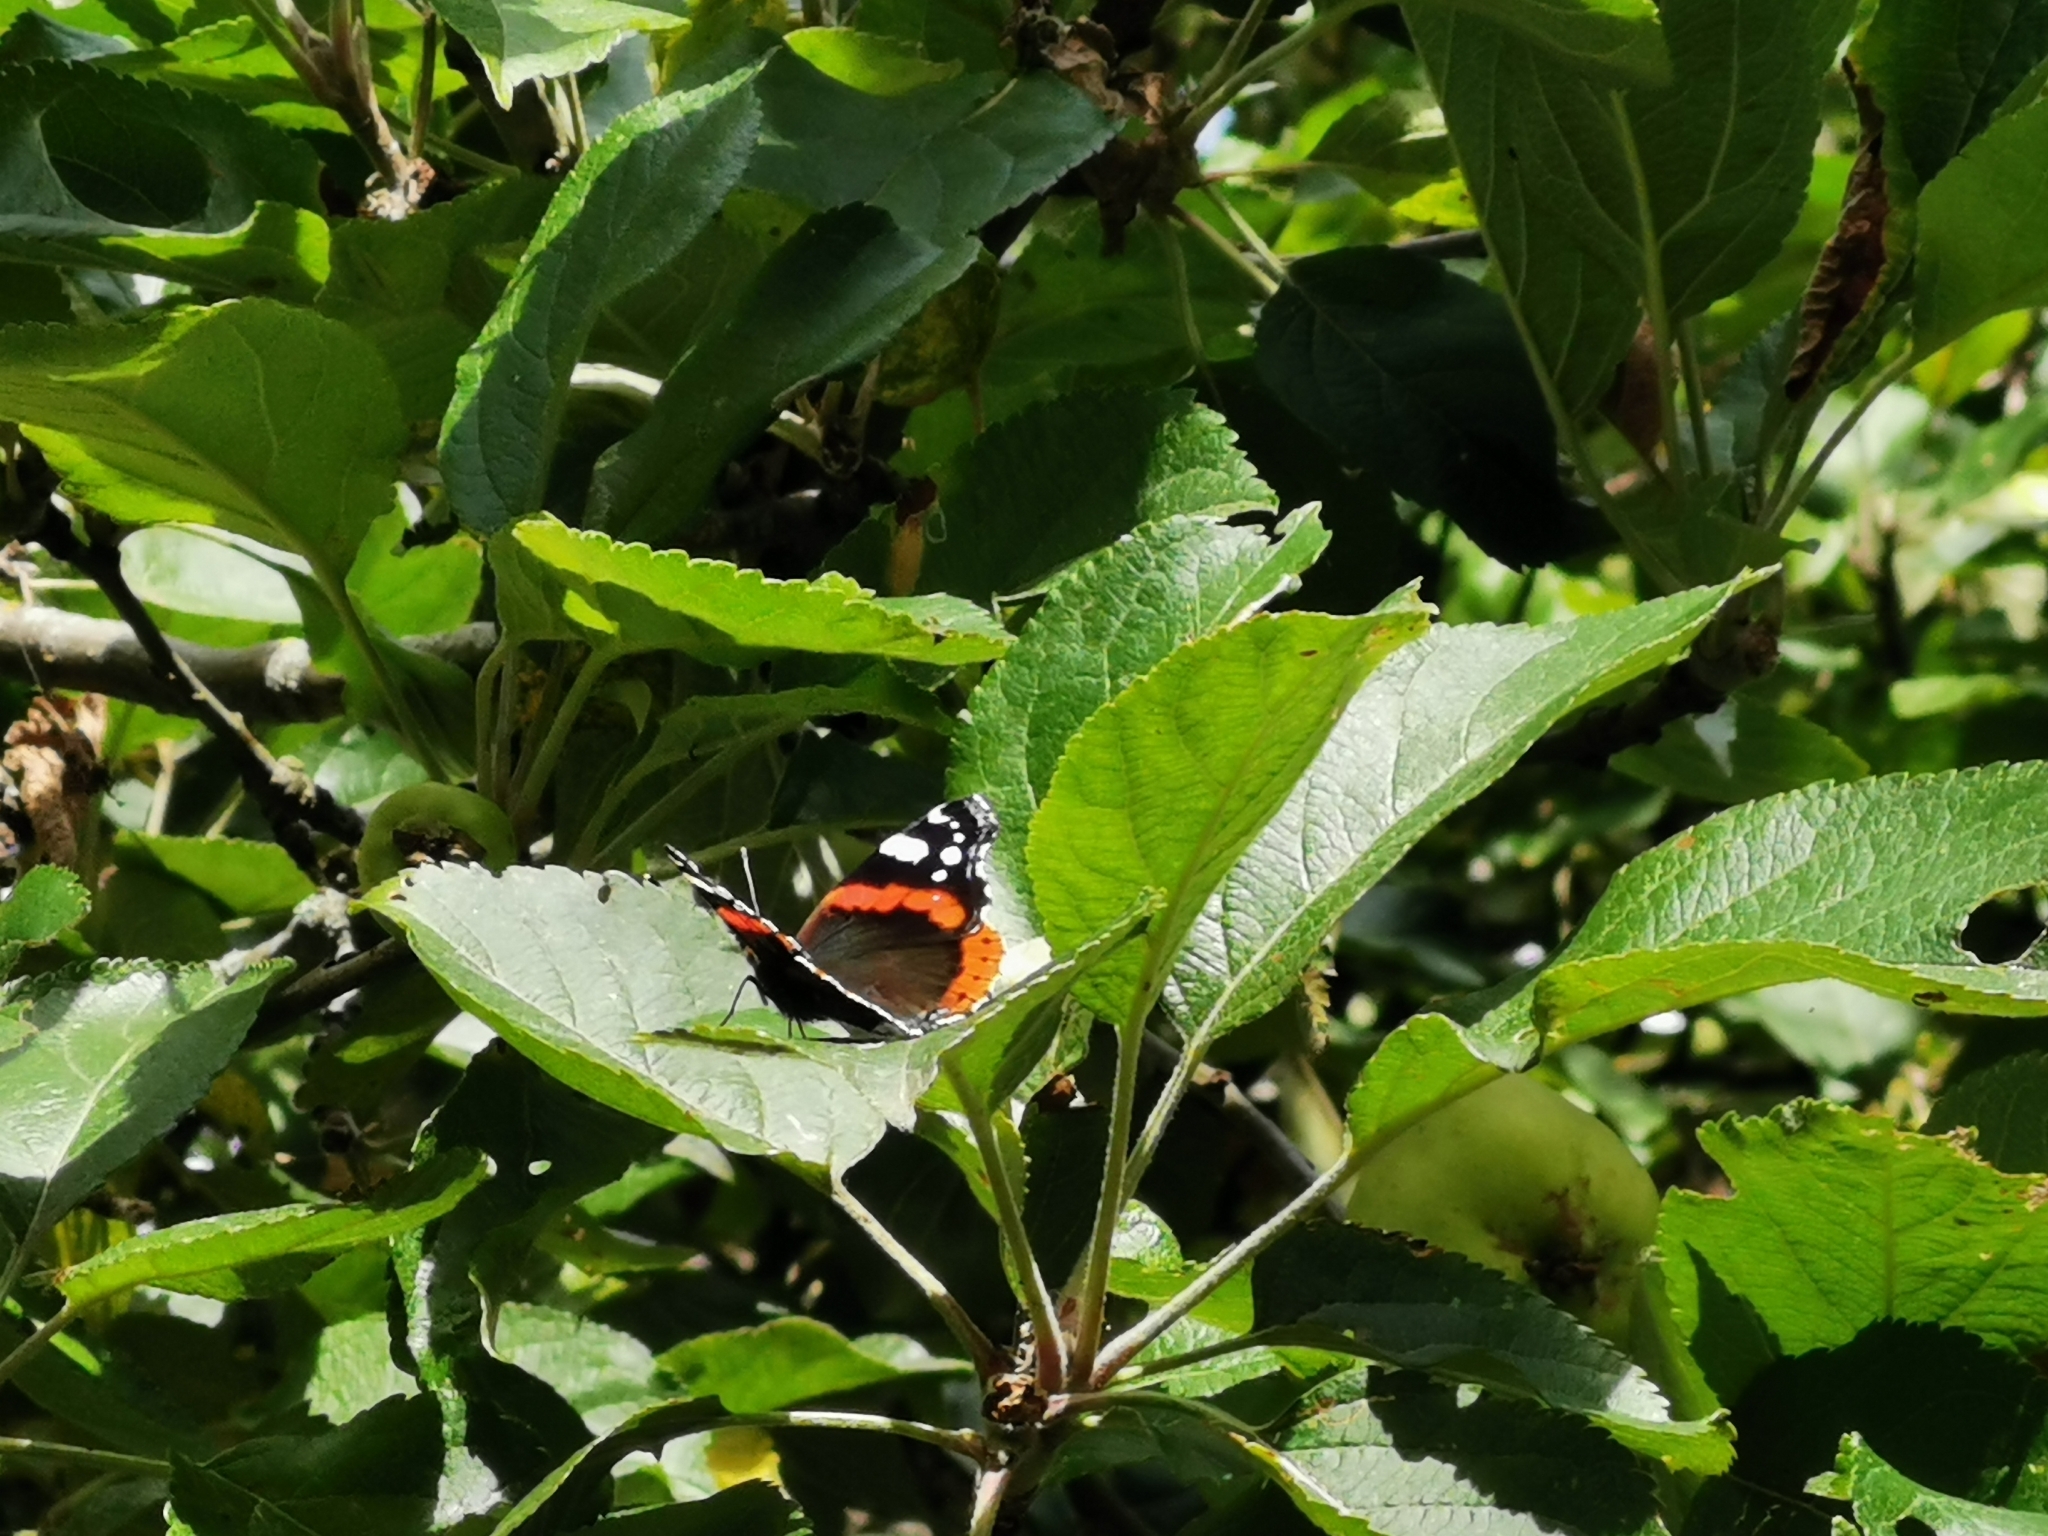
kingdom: Animalia
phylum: Arthropoda
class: Insecta
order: Lepidoptera
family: Nymphalidae
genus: Vanessa
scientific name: Vanessa atalanta
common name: Red admiral
